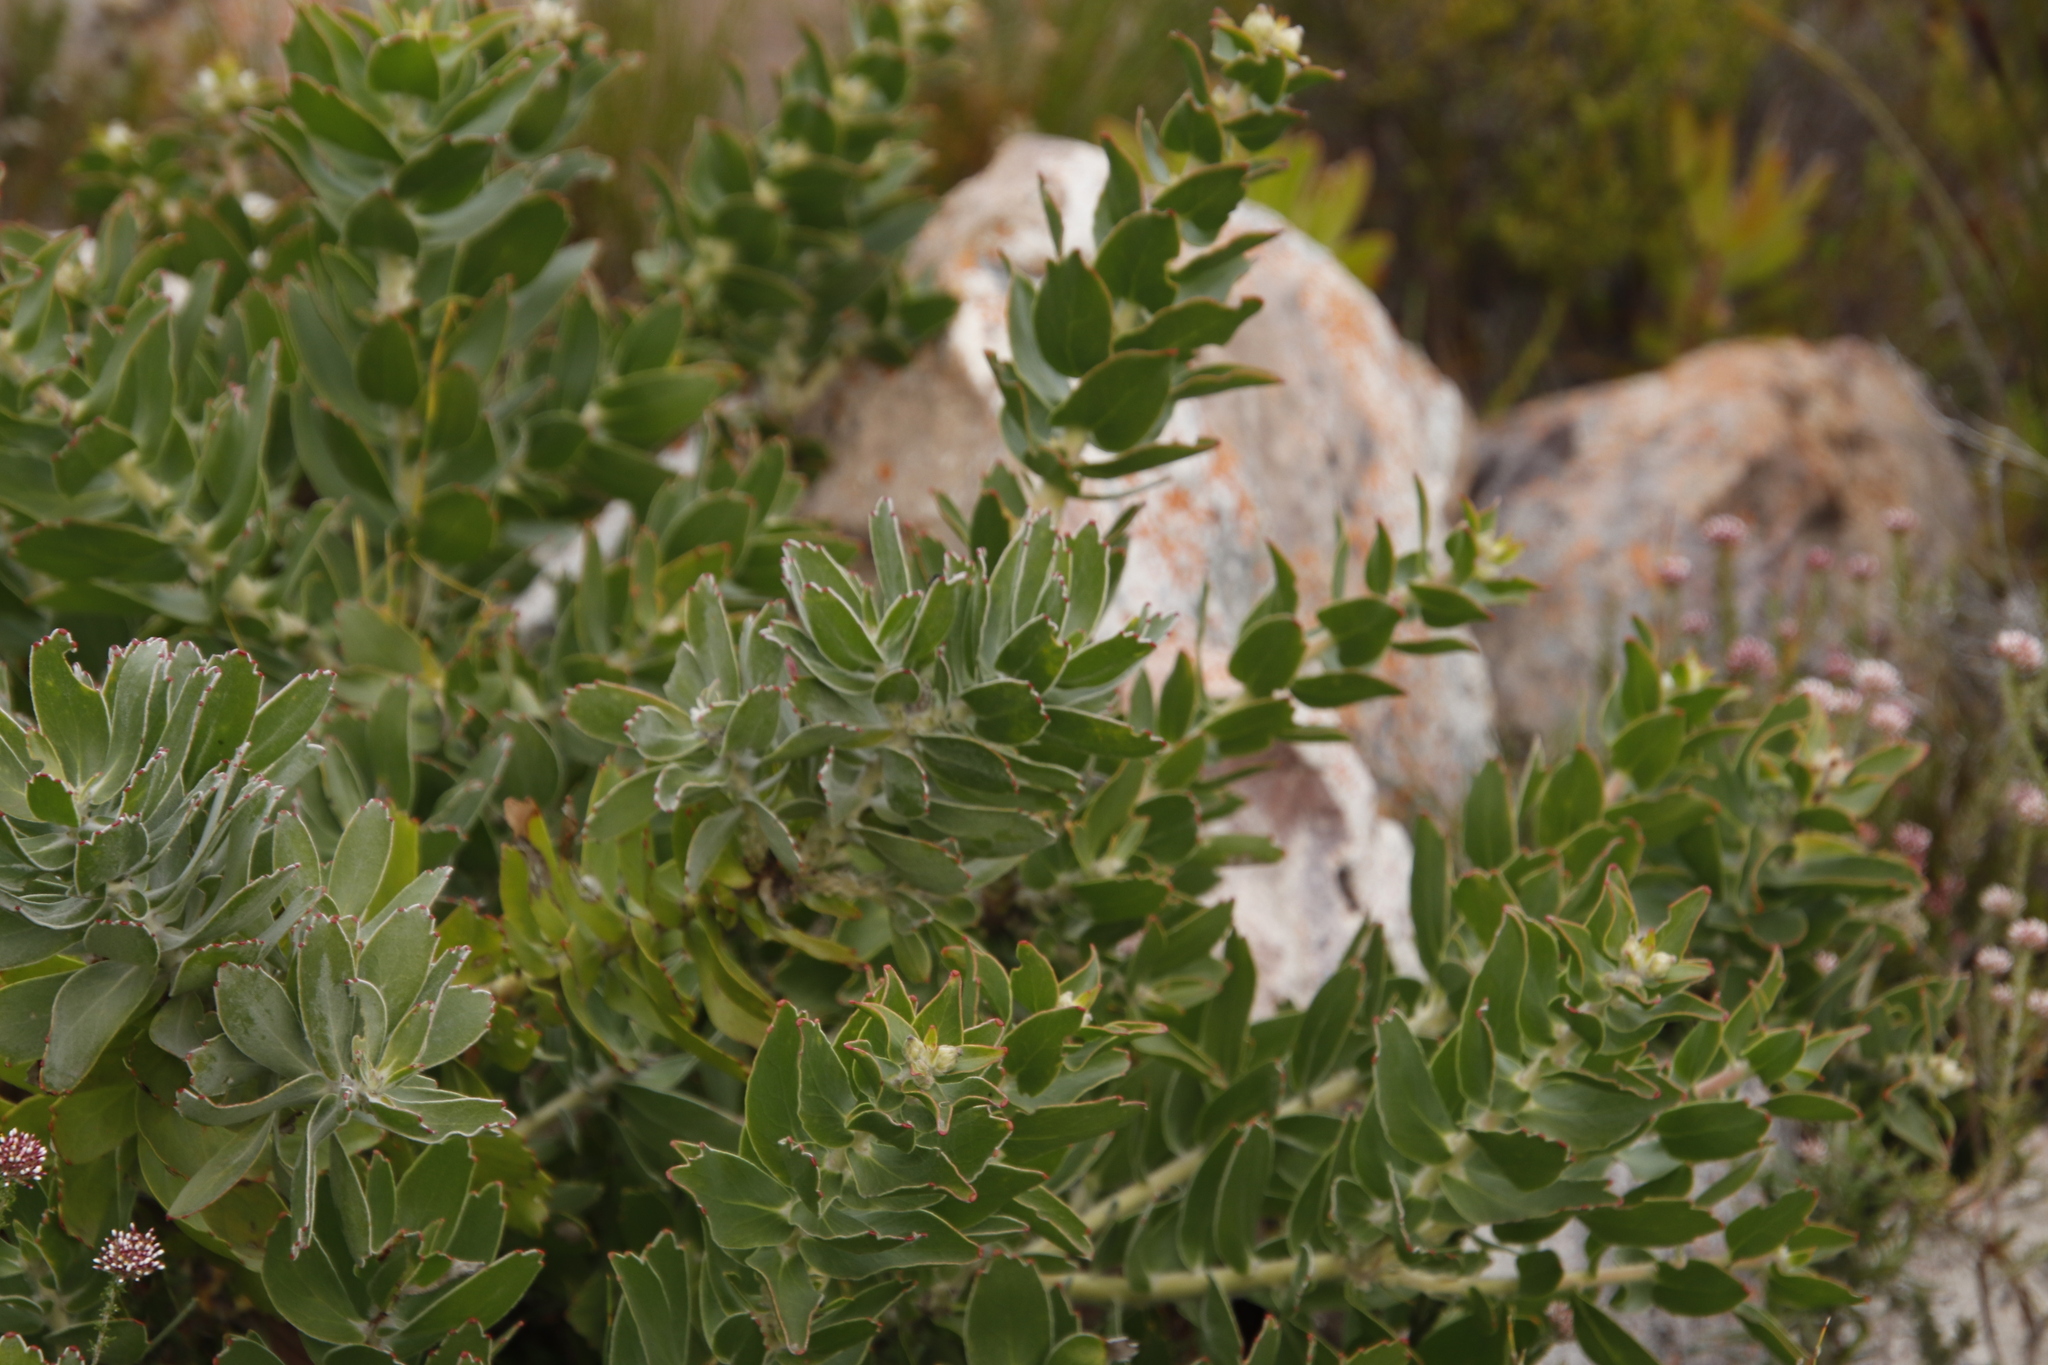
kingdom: Plantae
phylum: Tracheophyta
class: Magnoliopsida
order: Proteales
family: Proteaceae
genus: Leucospermum
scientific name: Leucospermum cordifolium
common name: Red pincushion-protea
